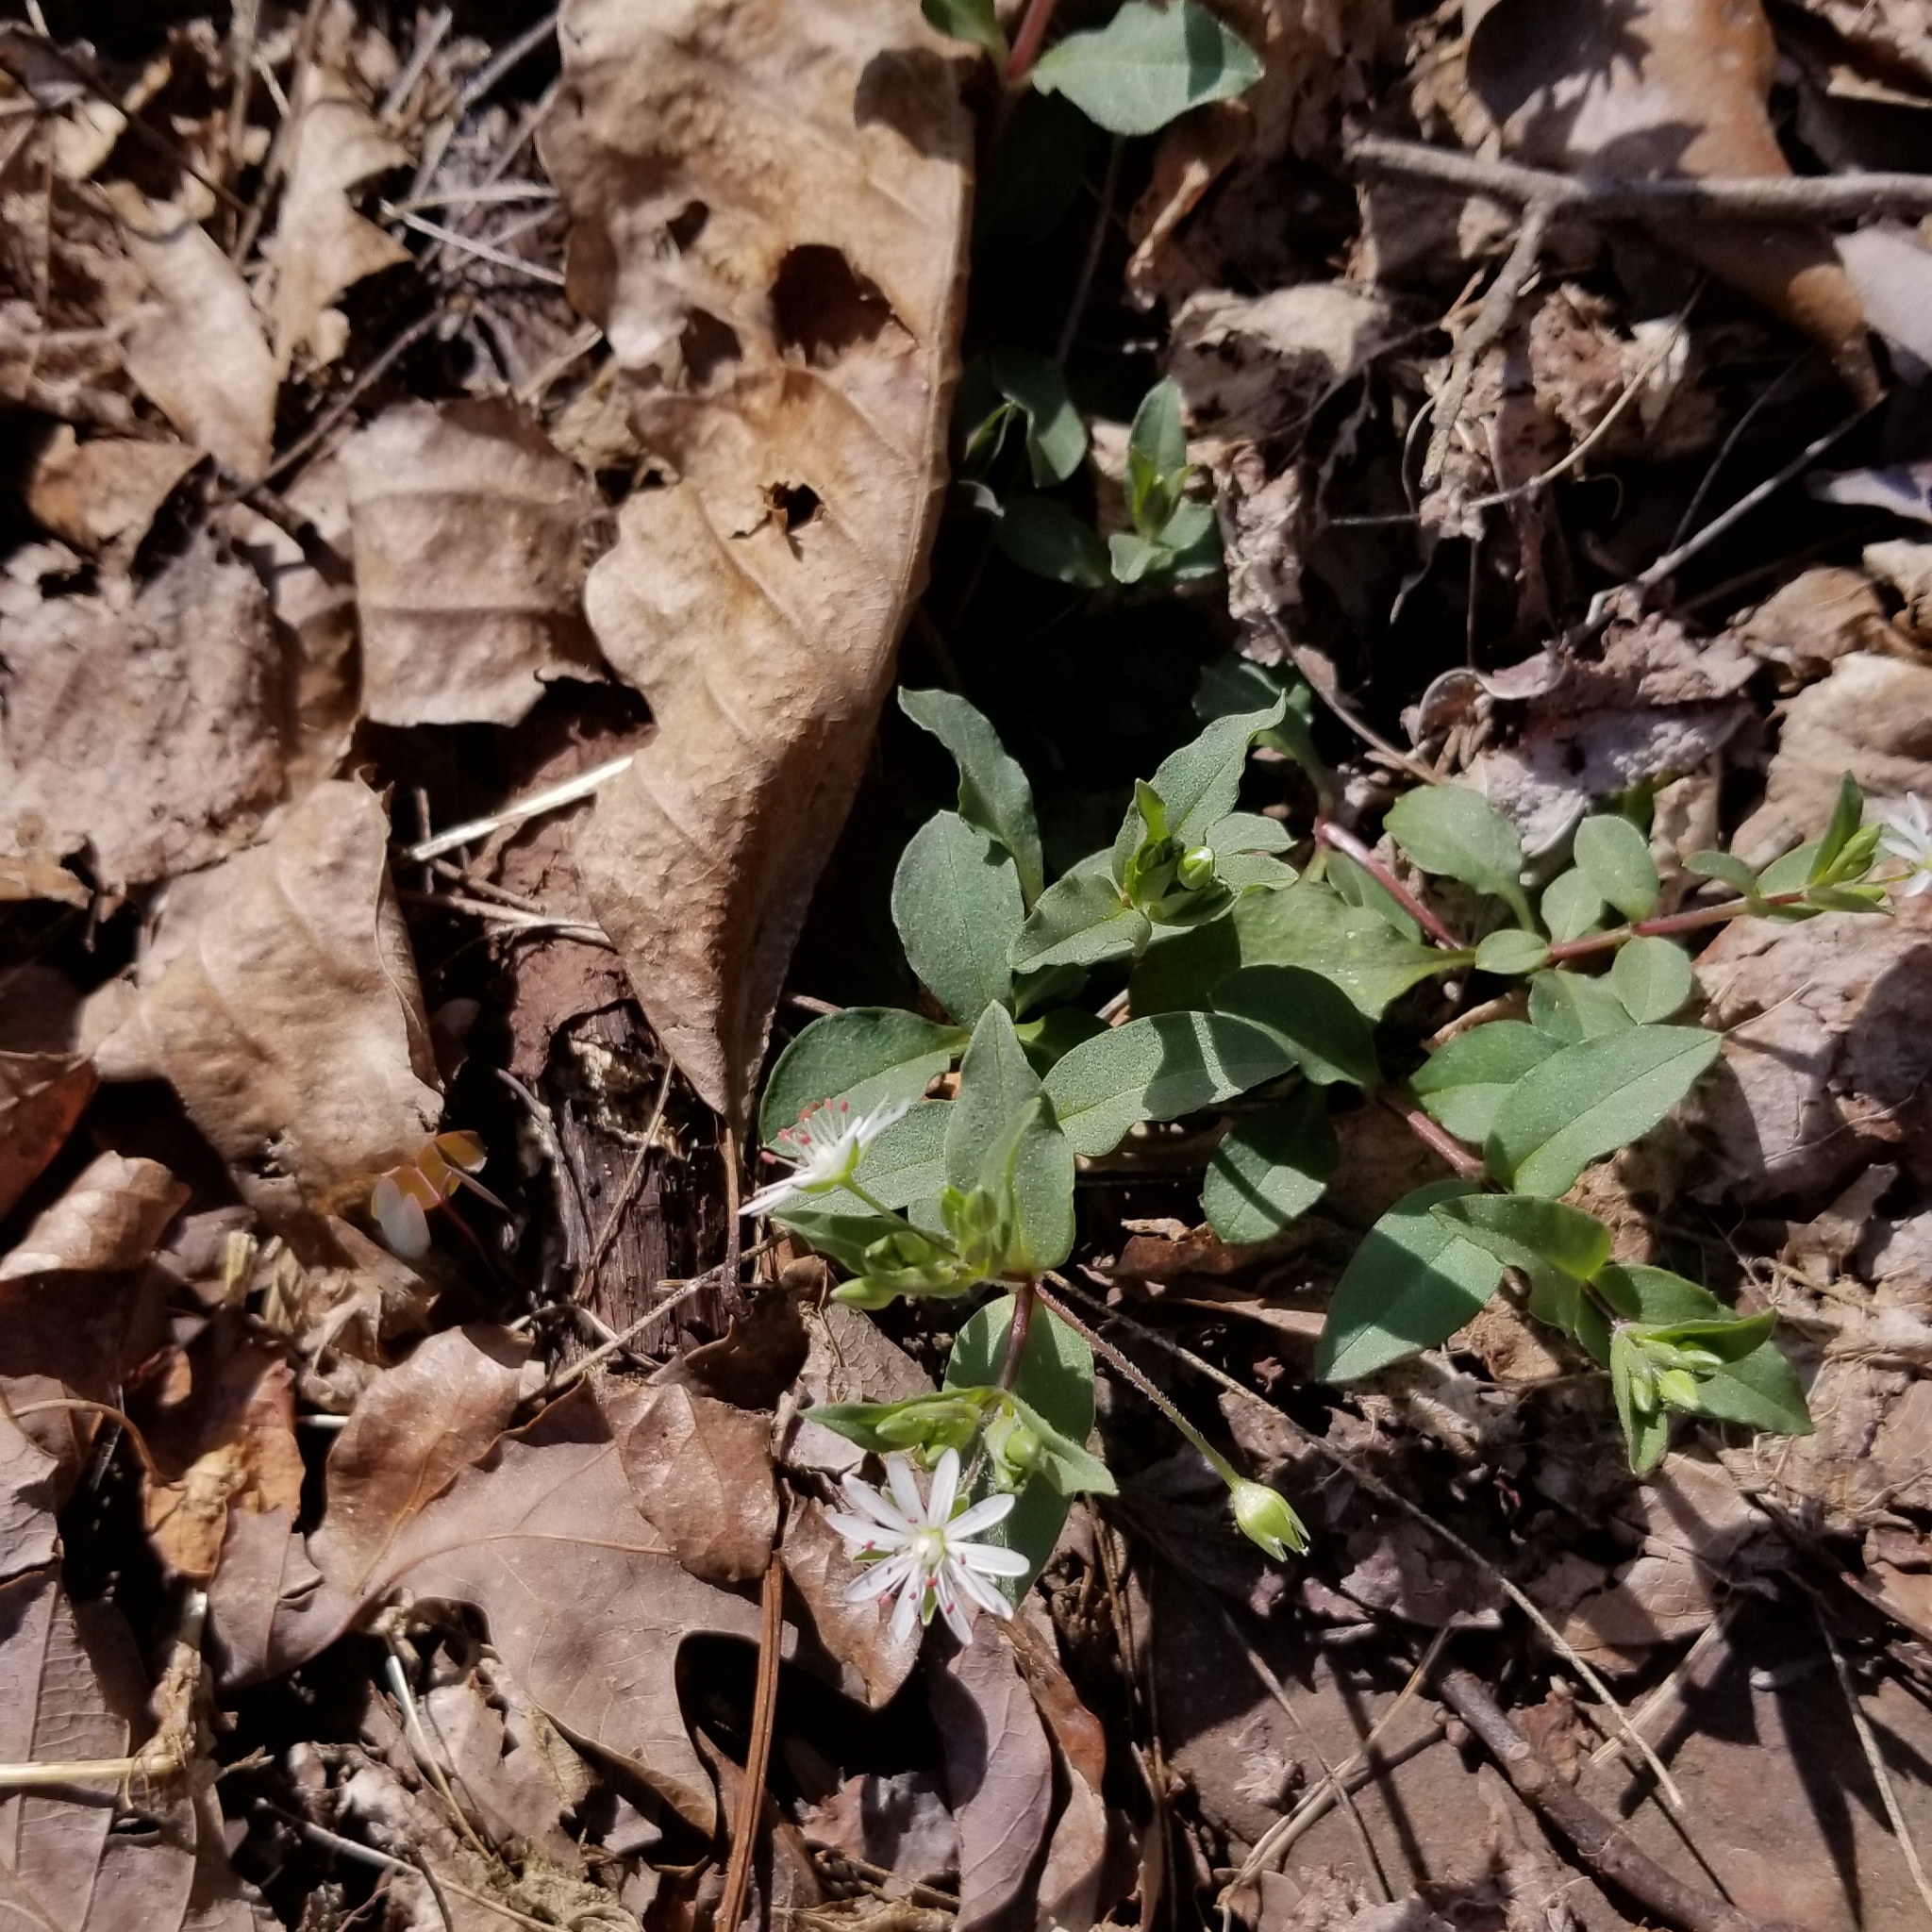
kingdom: Plantae
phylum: Tracheophyta
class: Magnoliopsida
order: Caryophyllales
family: Caryophyllaceae
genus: Stellaria
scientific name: Stellaria pubera
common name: Star chickweed
